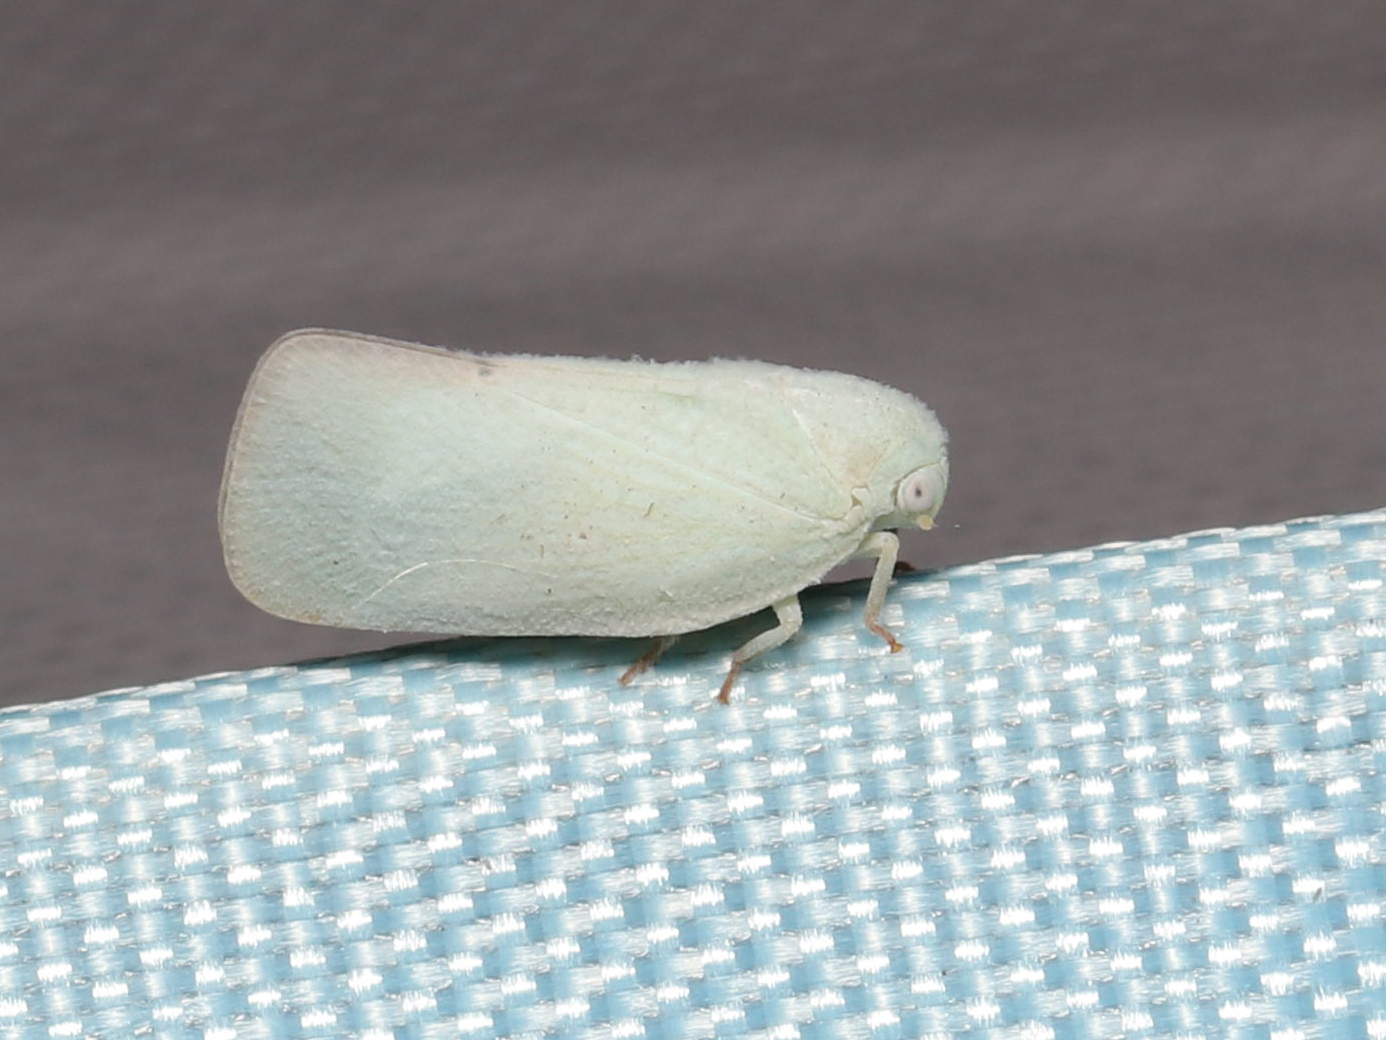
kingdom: Animalia
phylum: Arthropoda
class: Insecta
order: Hemiptera
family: Flatidae
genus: Flatormenis
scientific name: Flatormenis proxima
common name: Northern flatid planthopper
